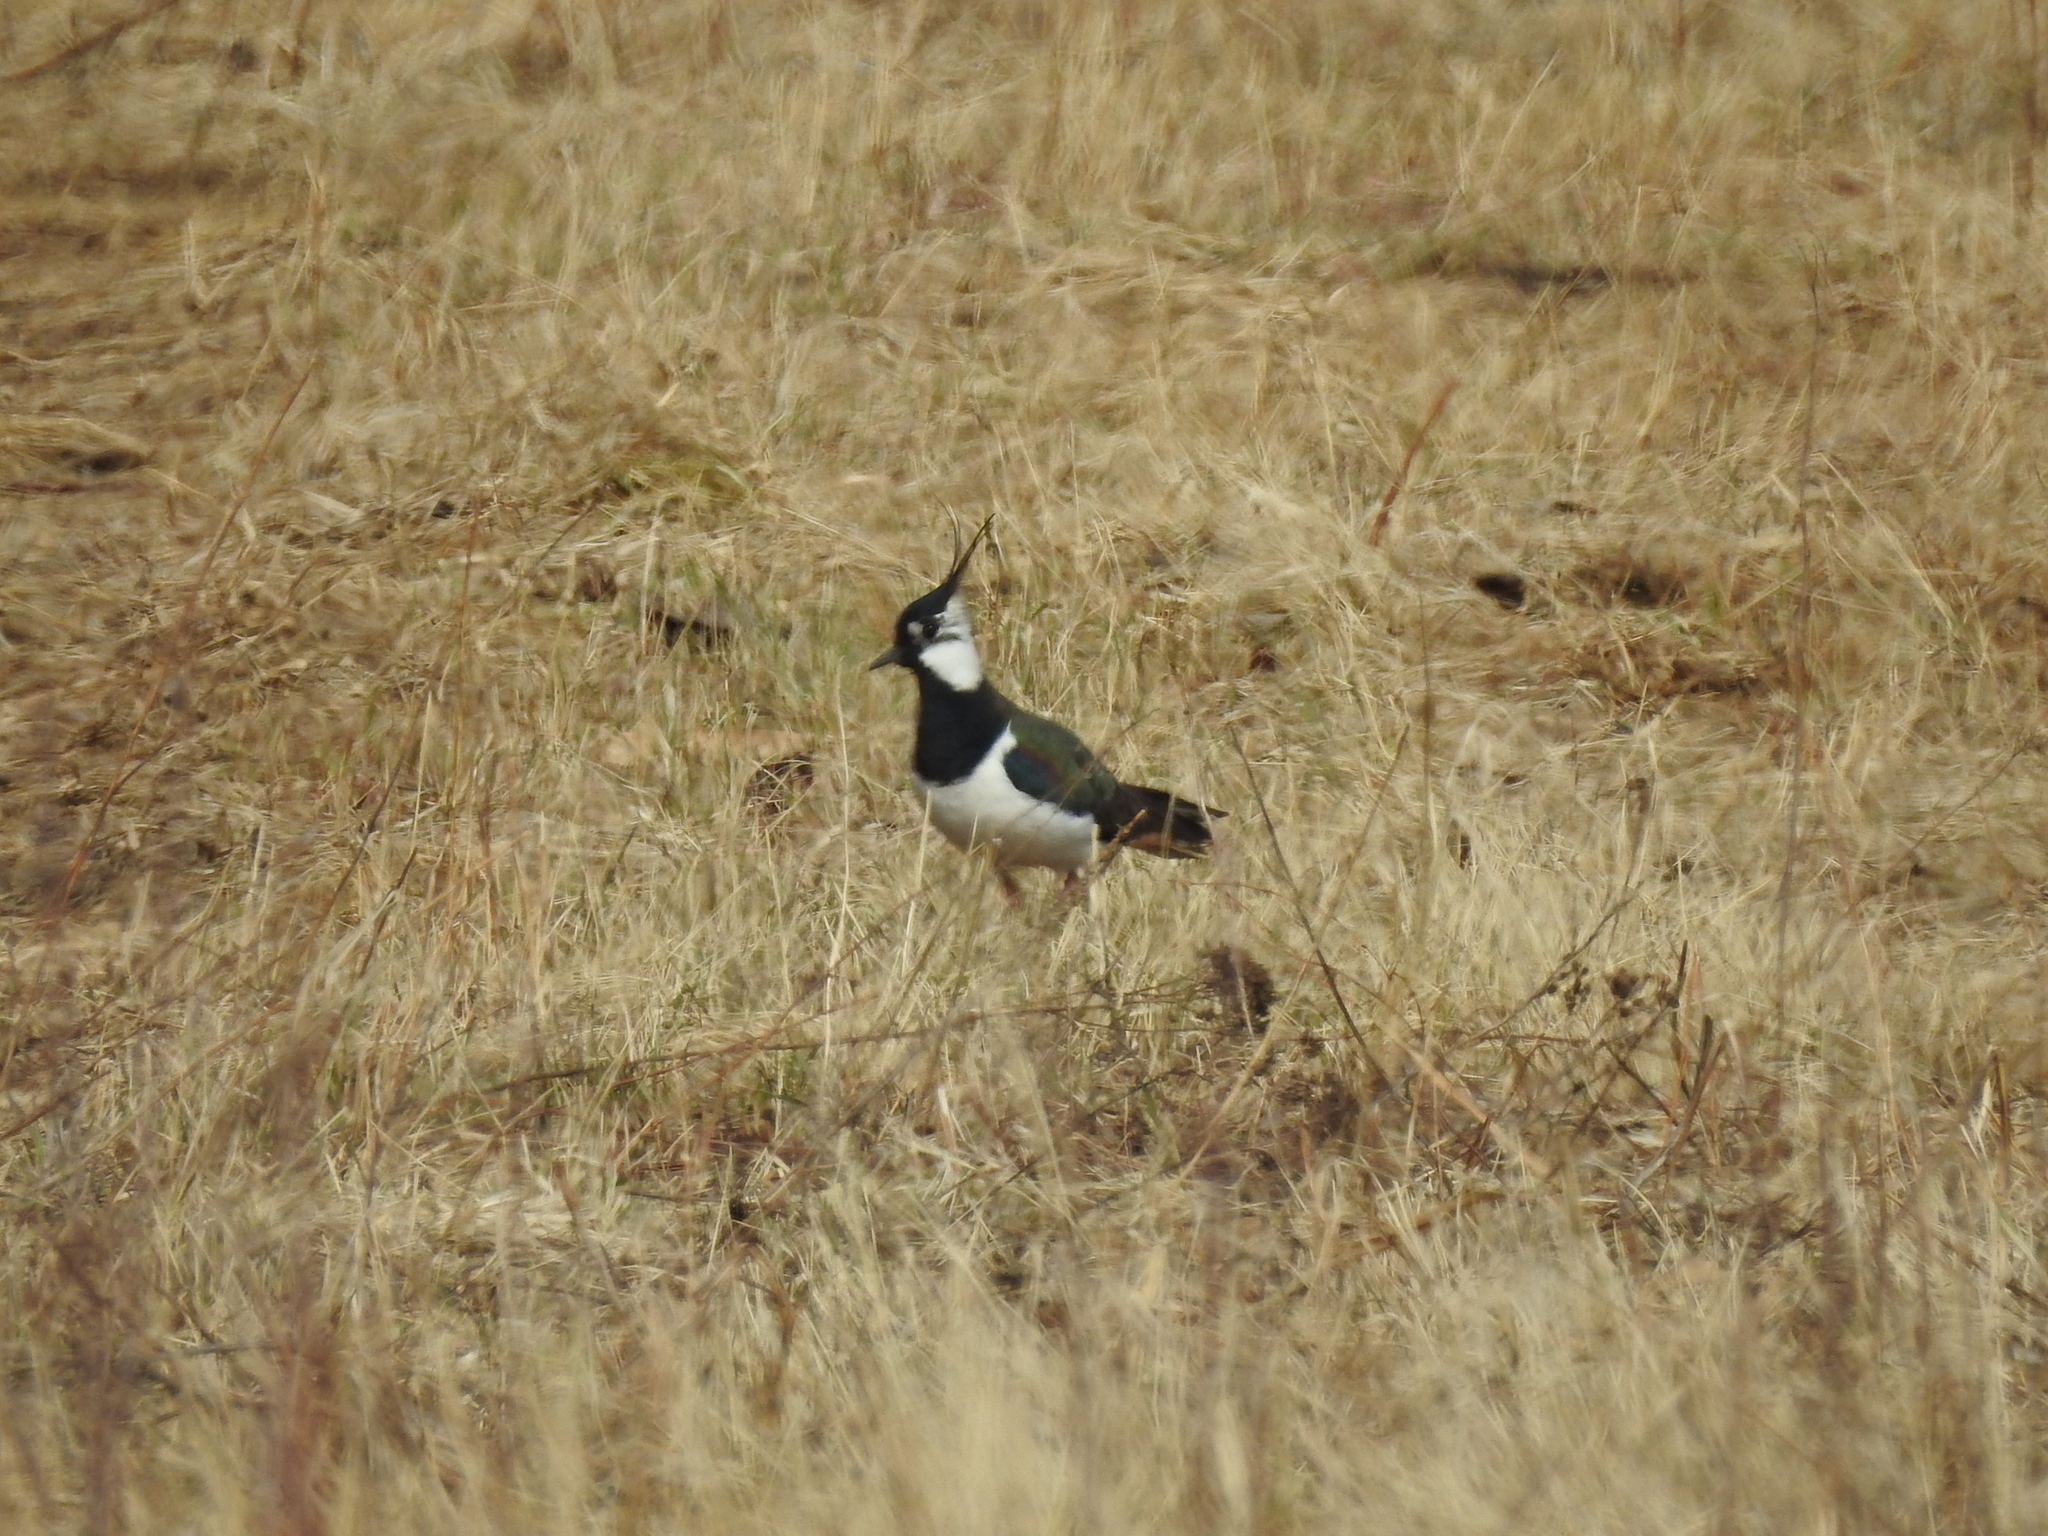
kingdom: Animalia
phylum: Chordata
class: Aves
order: Charadriiformes
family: Charadriidae
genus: Vanellus
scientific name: Vanellus vanellus
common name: Northern lapwing
